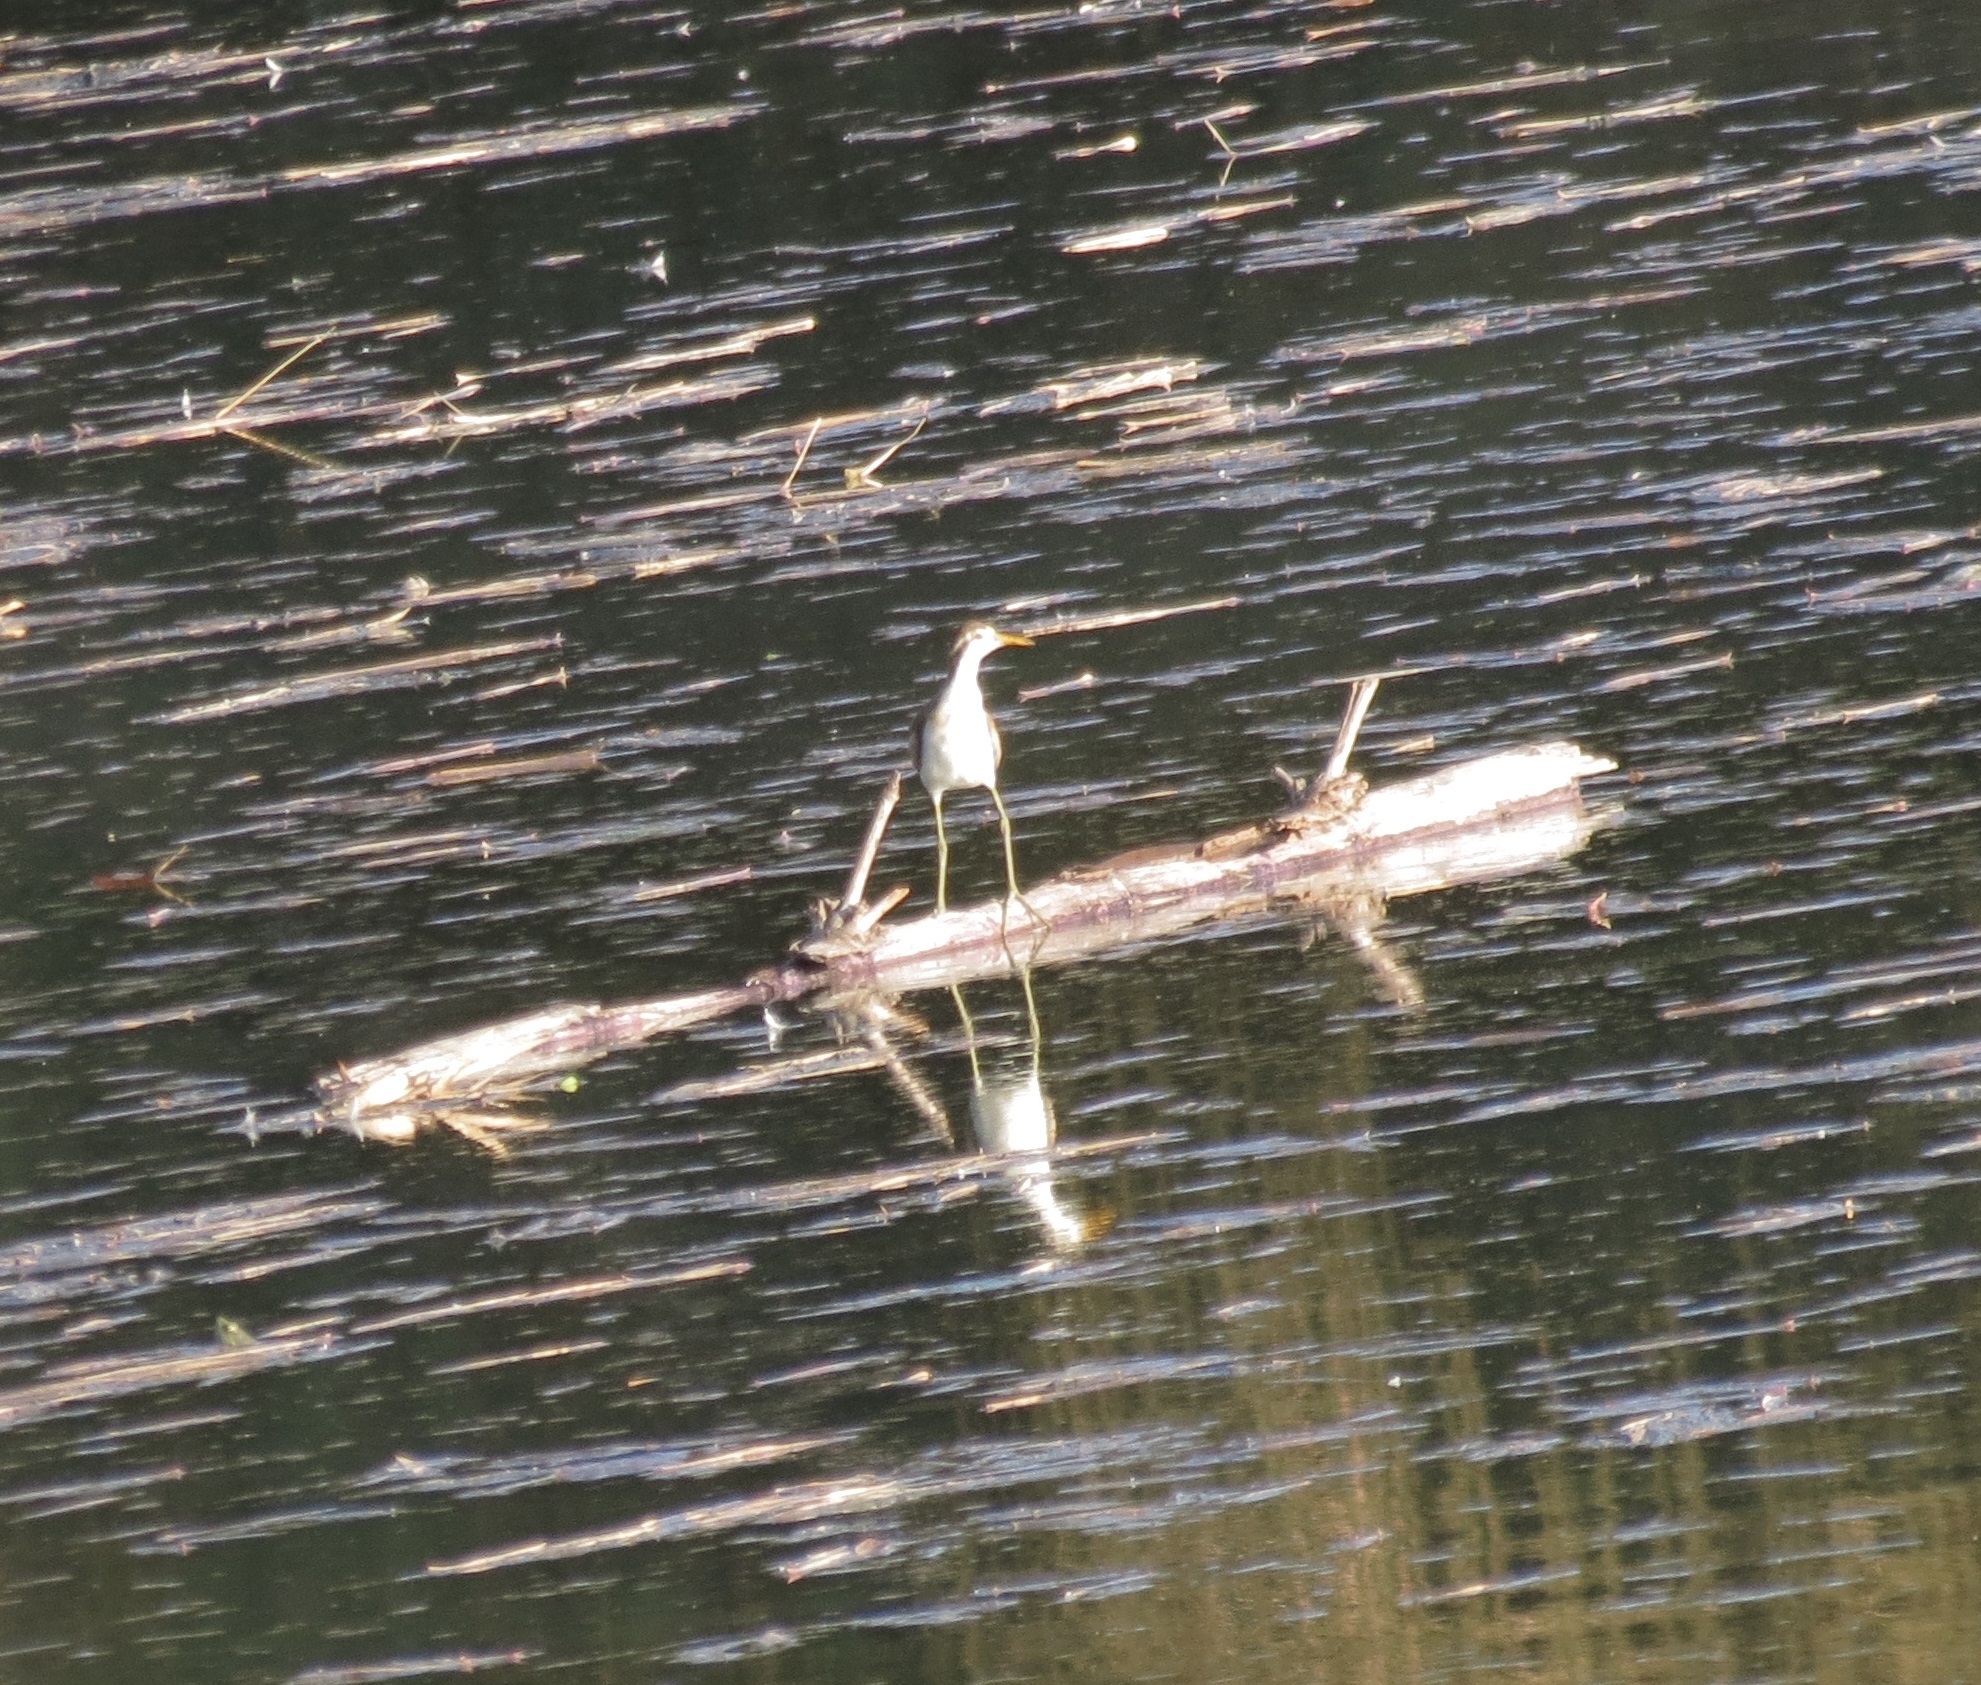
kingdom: Animalia
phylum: Chordata
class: Aves
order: Charadriiformes
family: Jacanidae
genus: Jacana
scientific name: Jacana spinosa
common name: Northern jacana
